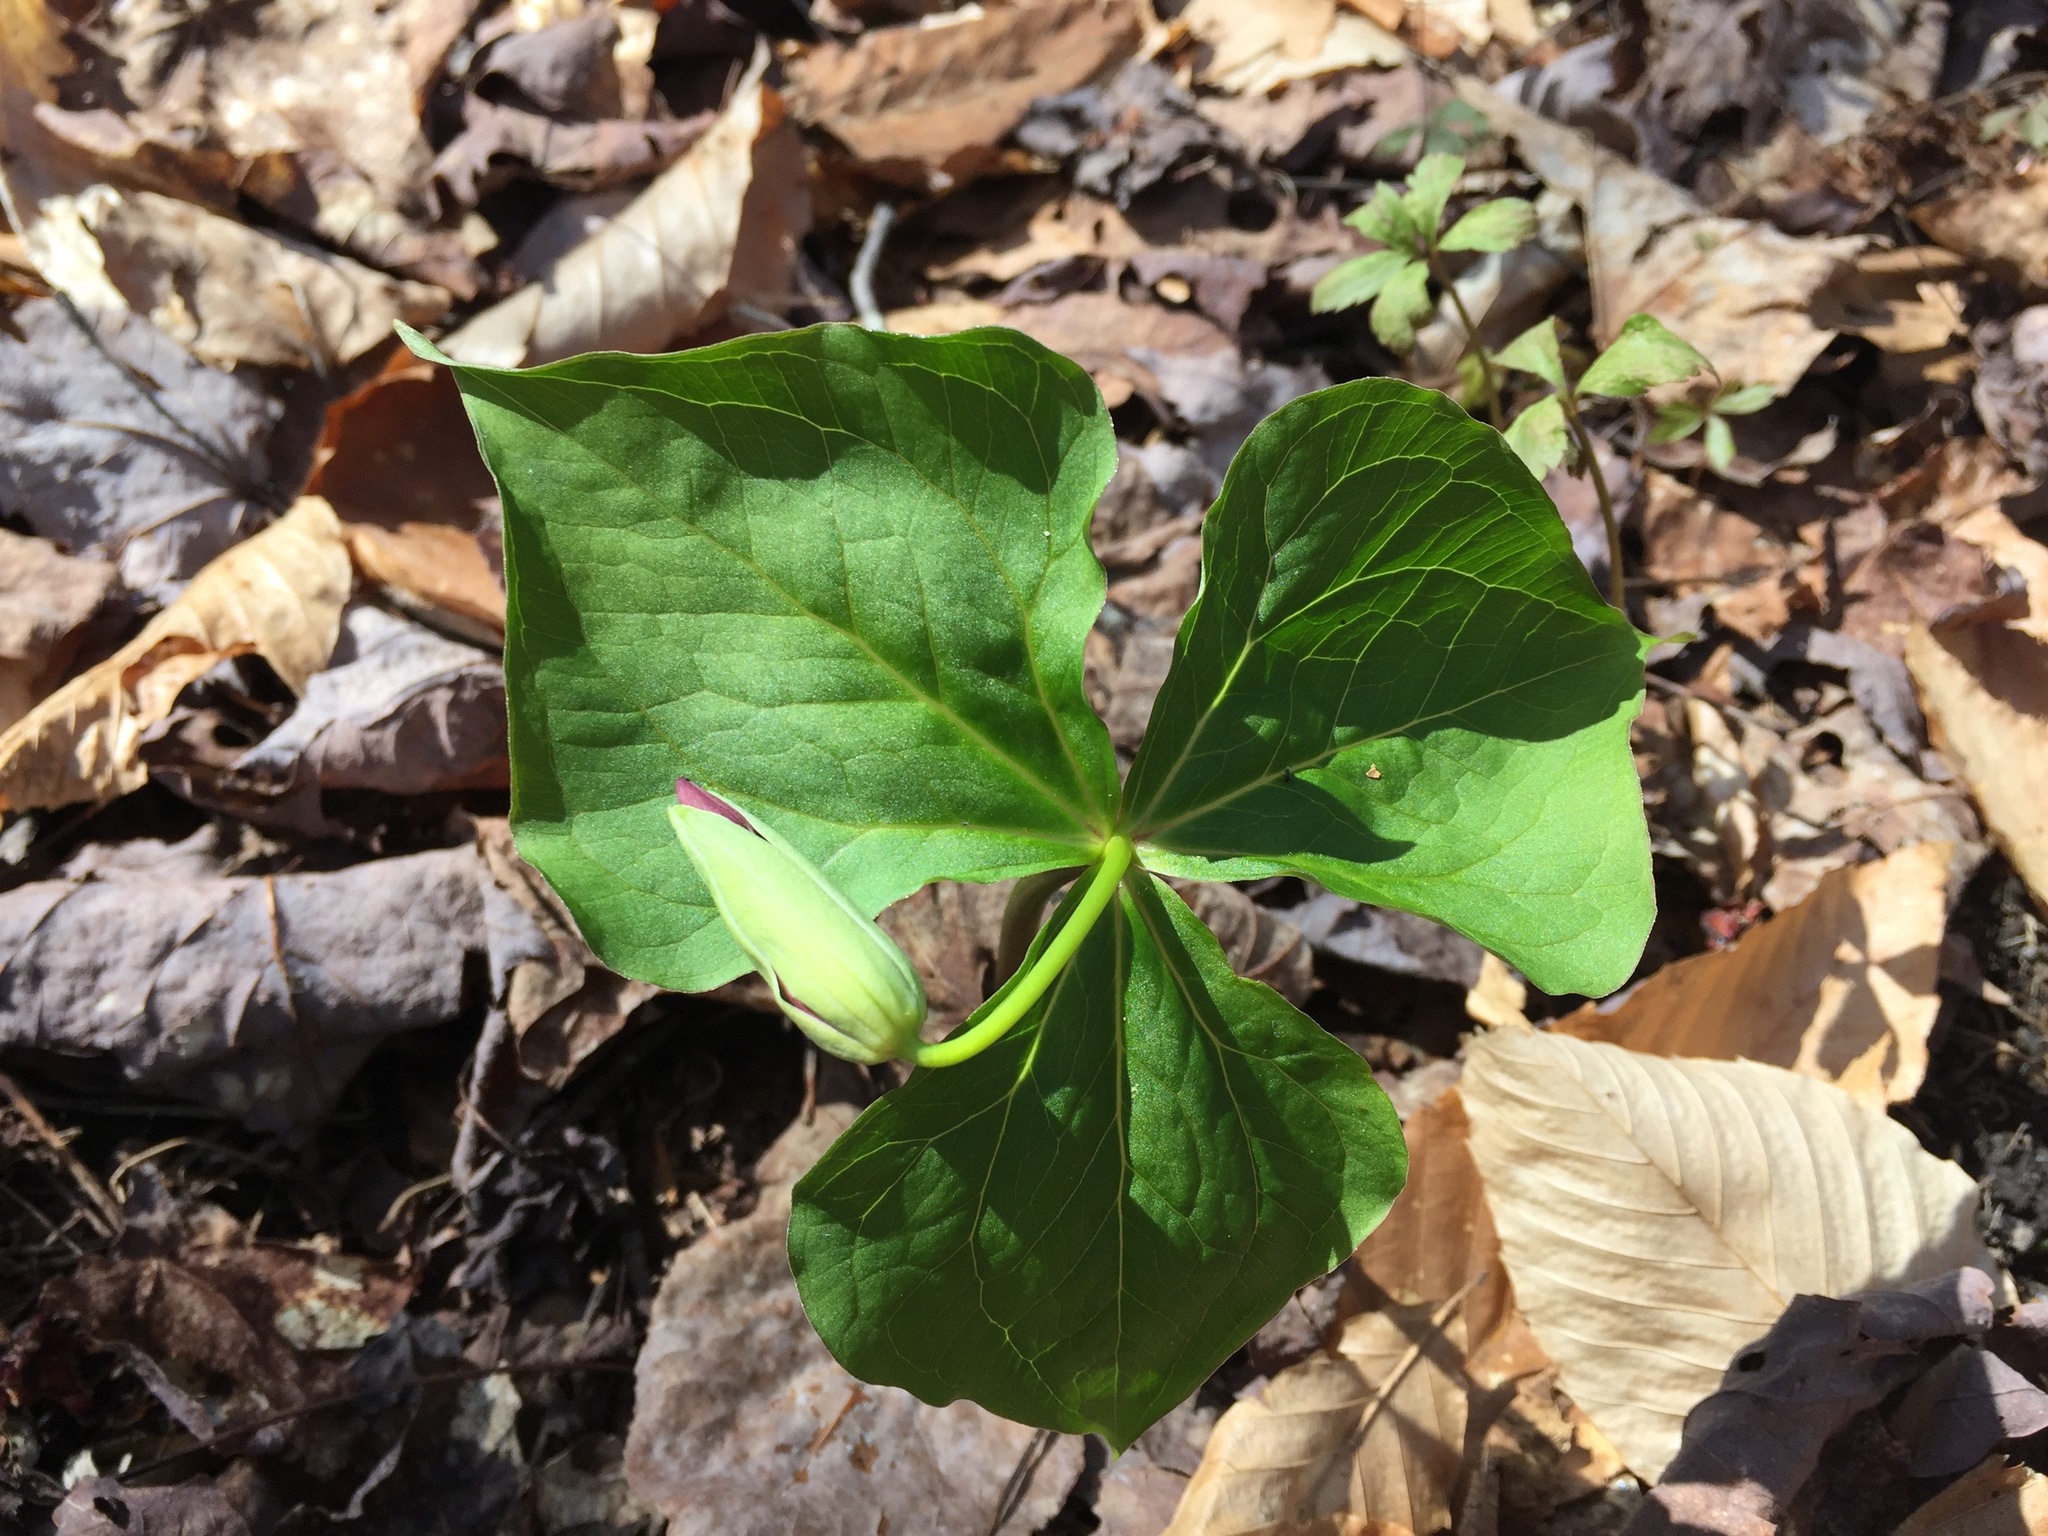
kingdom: Plantae
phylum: Tracheophyta
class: Liliopsida
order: Liliales
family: Melanthiaceae
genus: Trillium
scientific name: Trillium erectum
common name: Purple trillium
